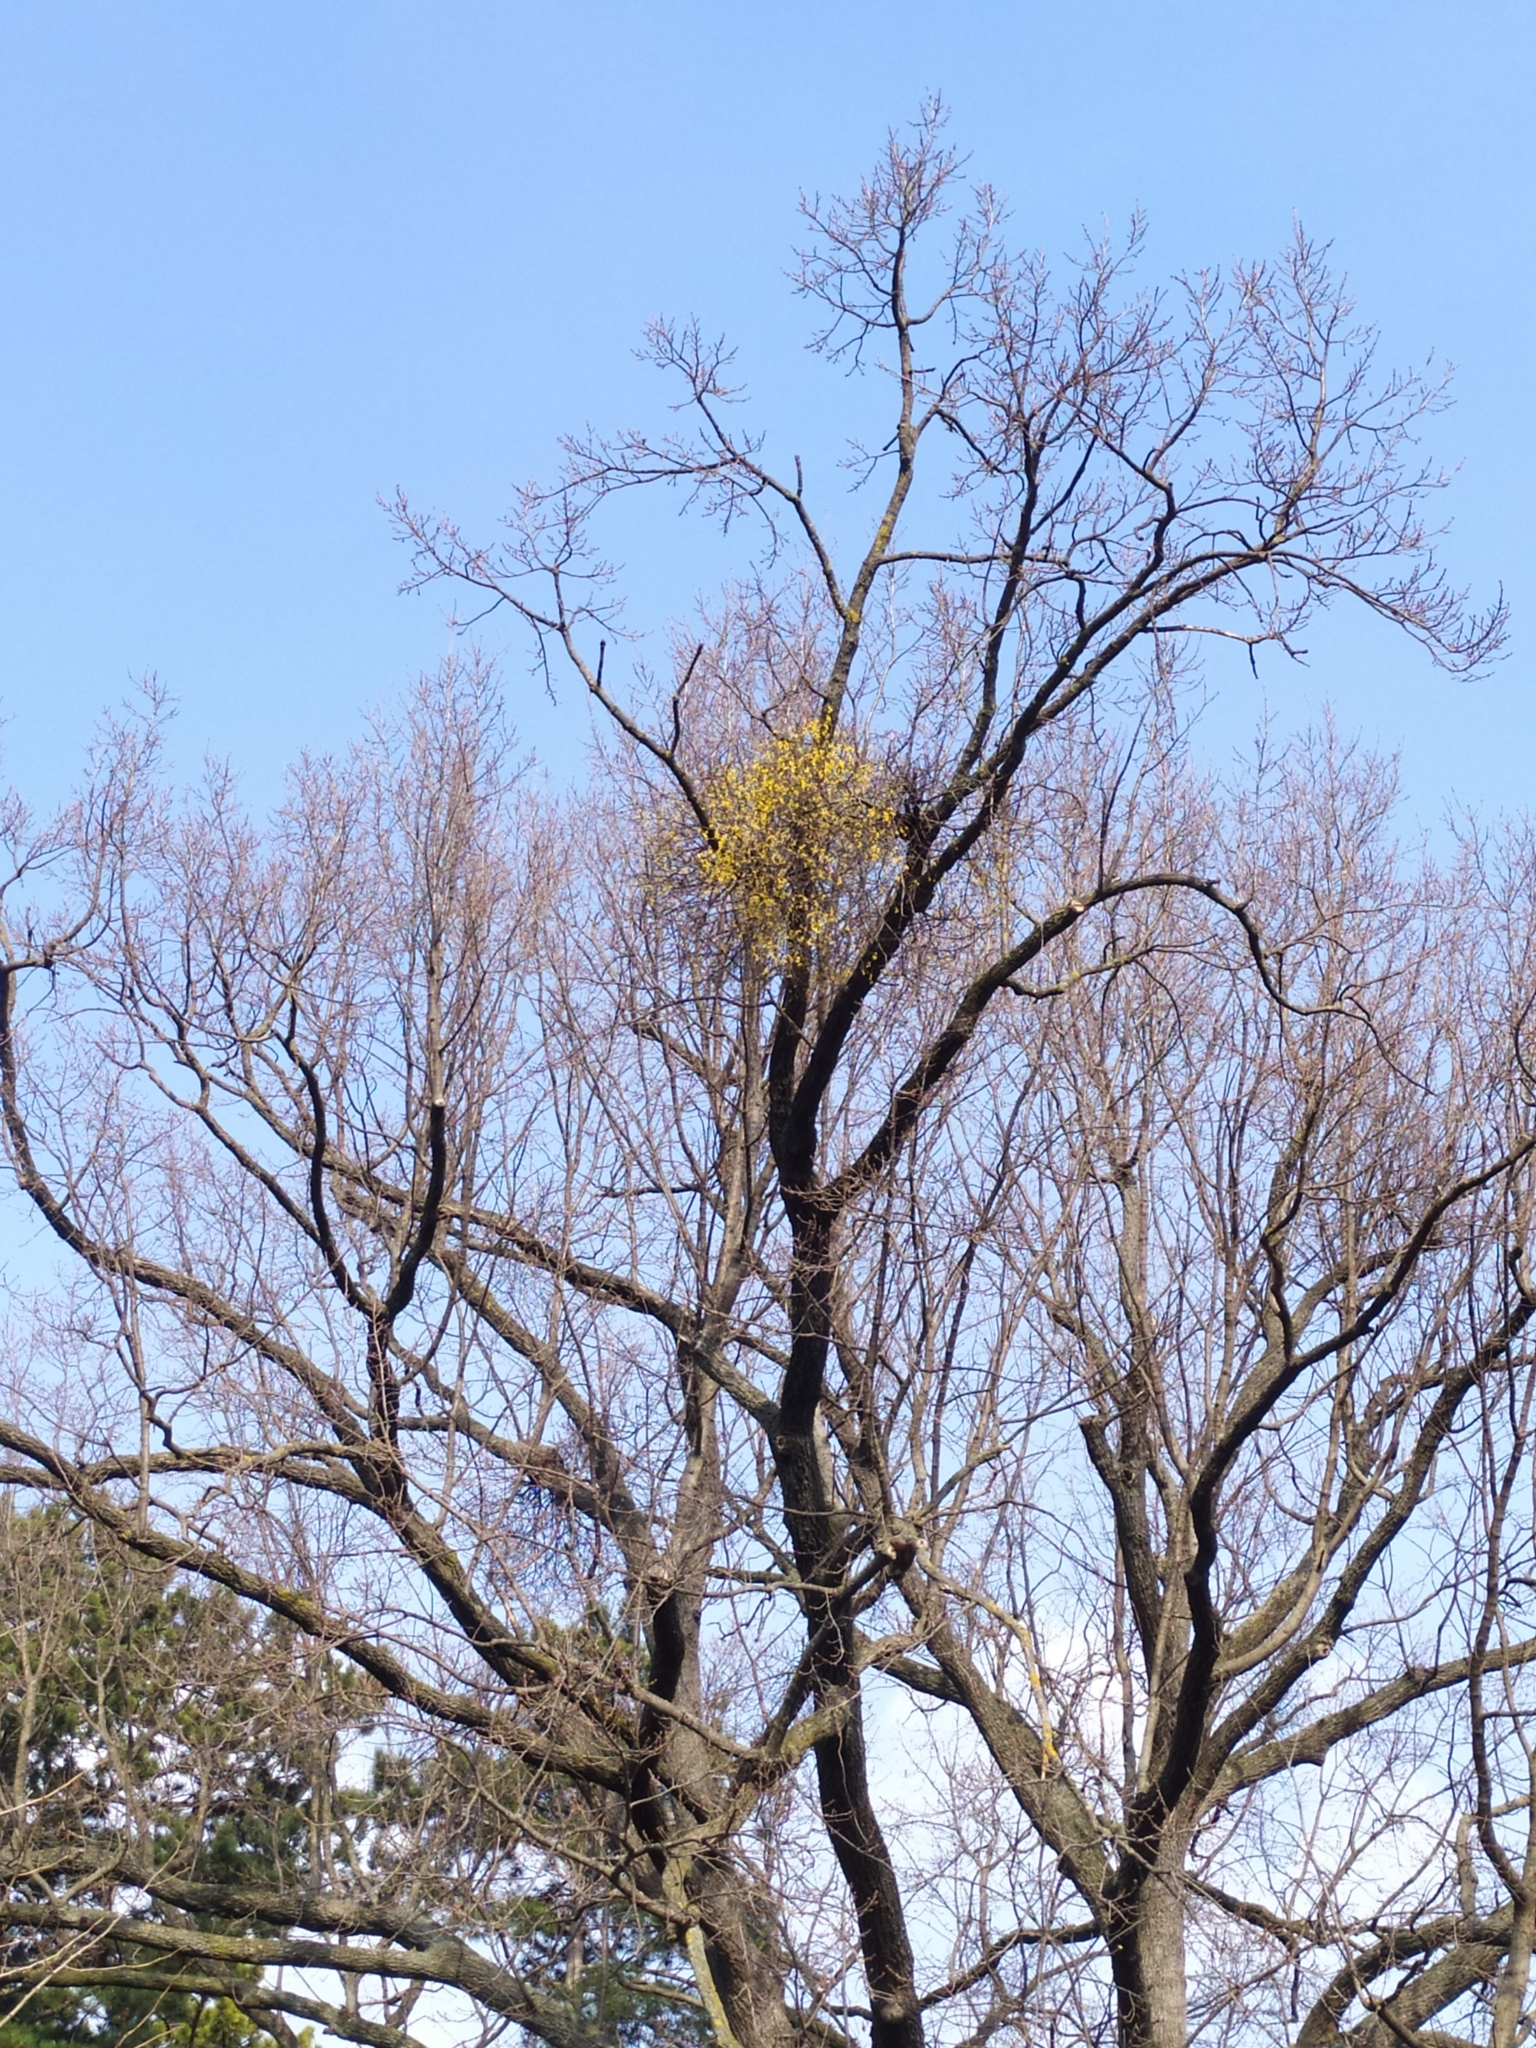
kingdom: Plantae
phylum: Tracheophyta
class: Magnoliopsida
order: Santalales
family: Loranthaceae
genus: Loranthus
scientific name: Loranthus europaeus
